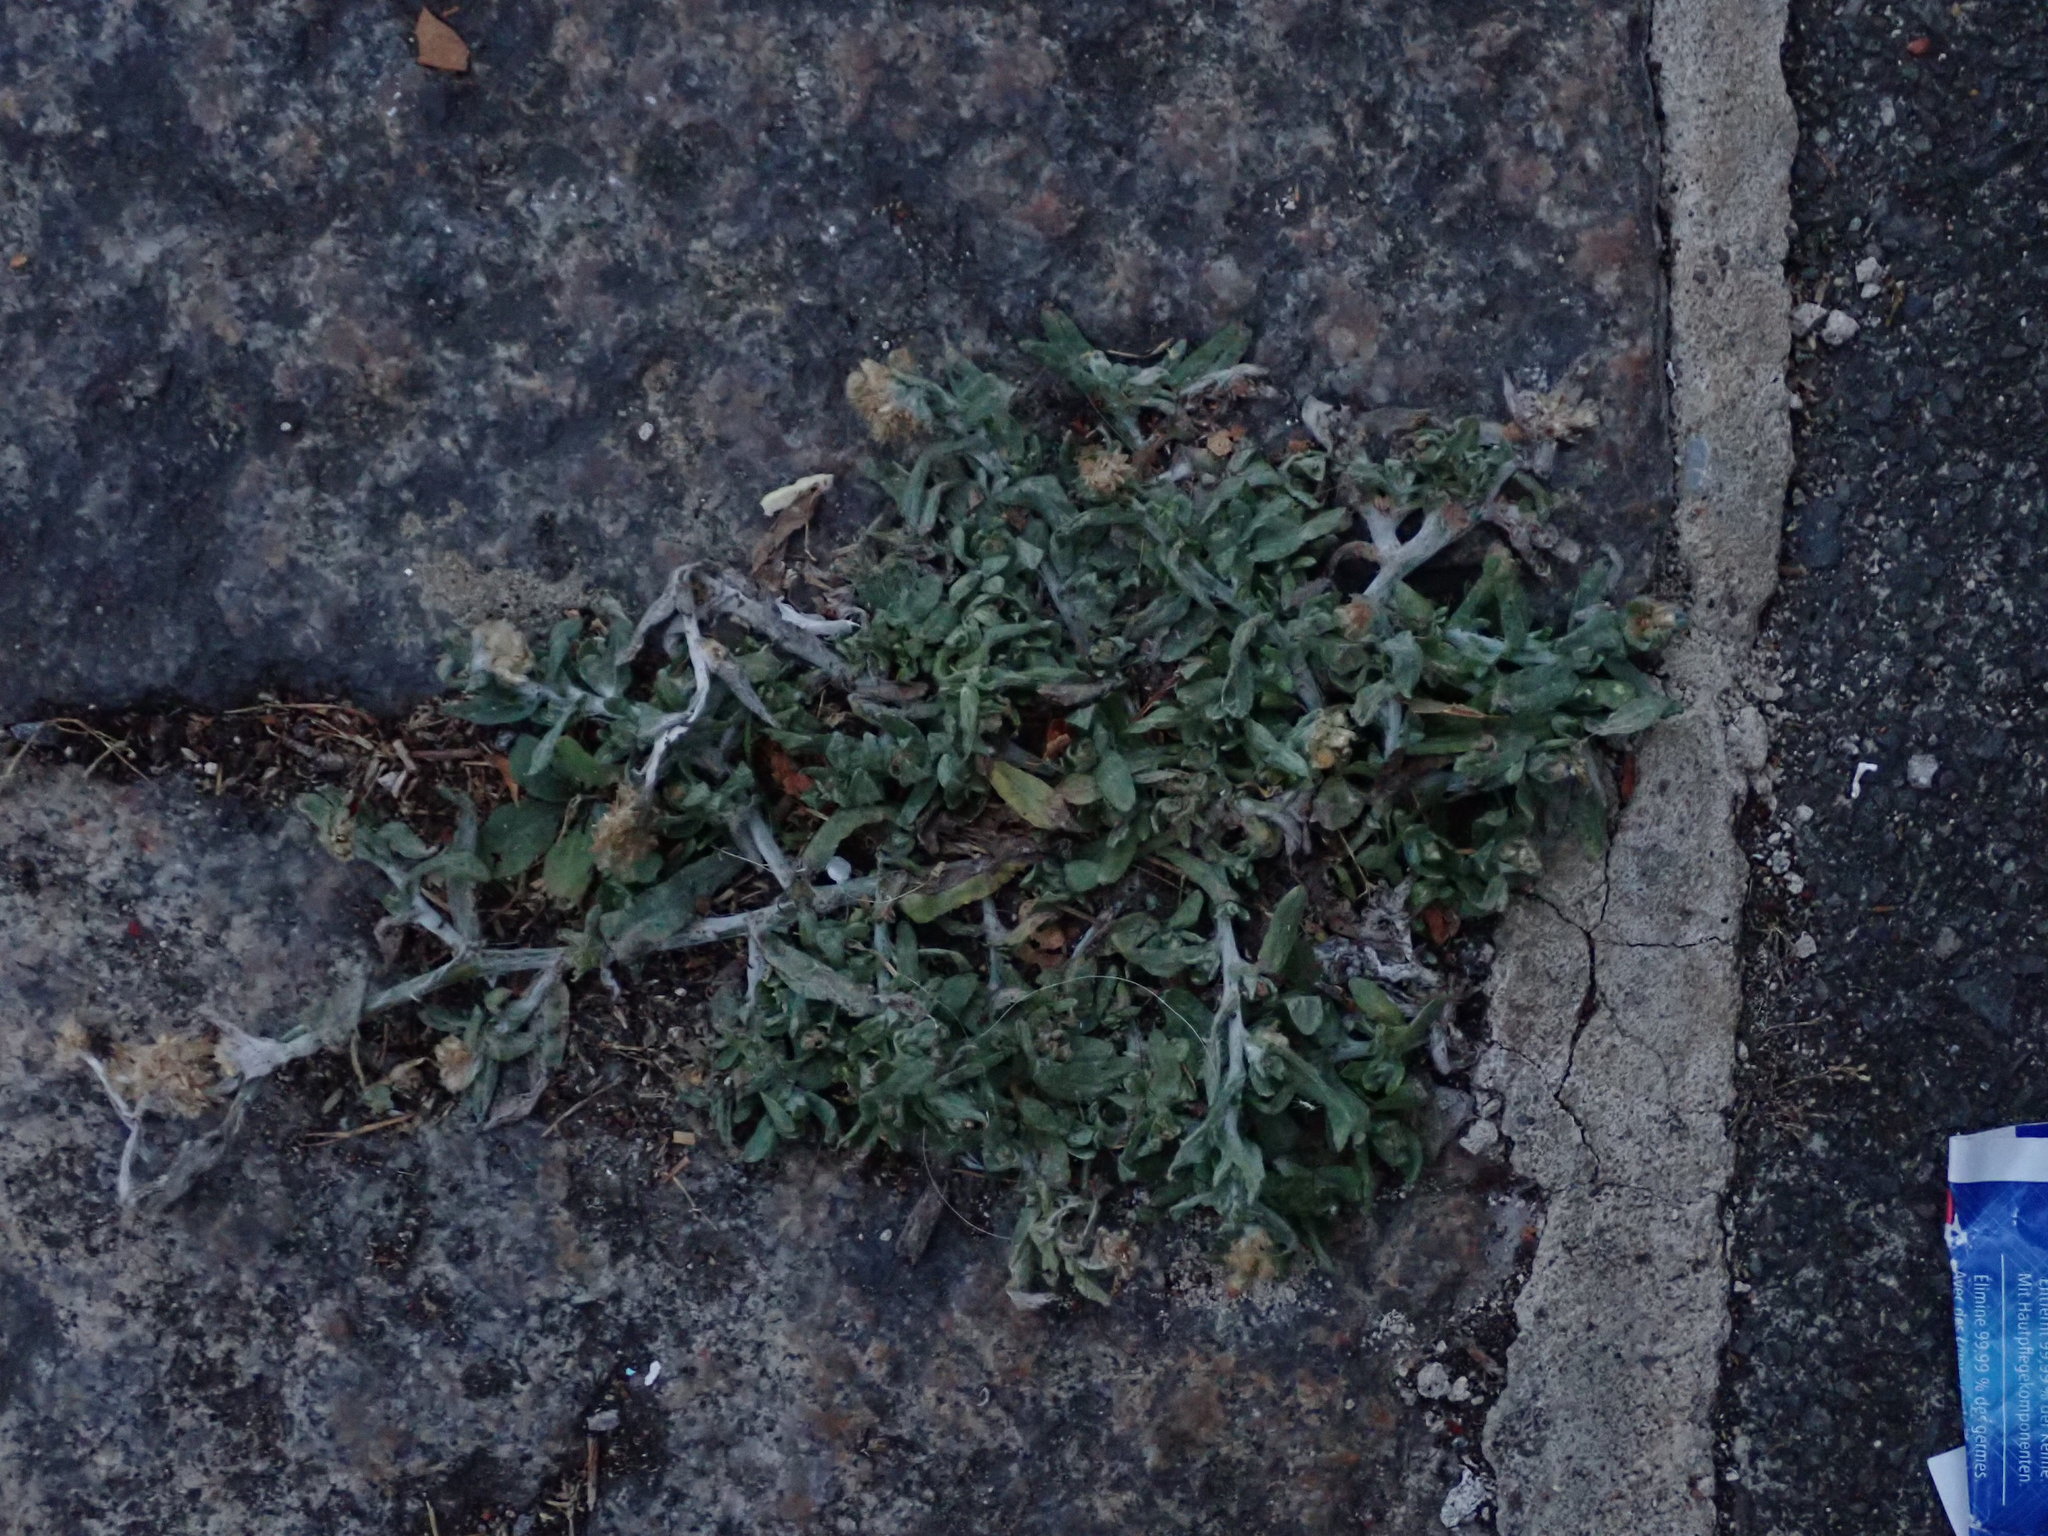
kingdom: Plantae
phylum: Tracheophyta
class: Magnoliopsida
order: Asterales
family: Asteraceae
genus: Helichrysum
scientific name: Helichrysum luteoalbum
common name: Daisy
